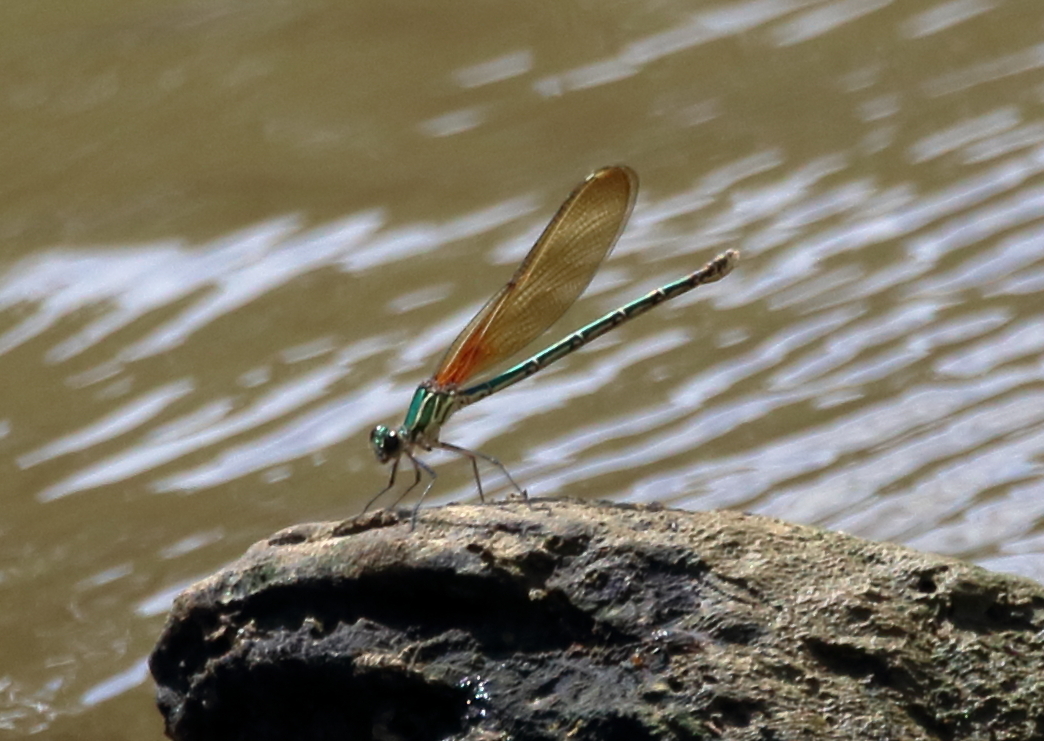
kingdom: Animalia
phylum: Arthropoda
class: Insecta
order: Odonata
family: Calopterygidae
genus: Hetaerina
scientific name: Hetaerina americana
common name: American rubyspot
